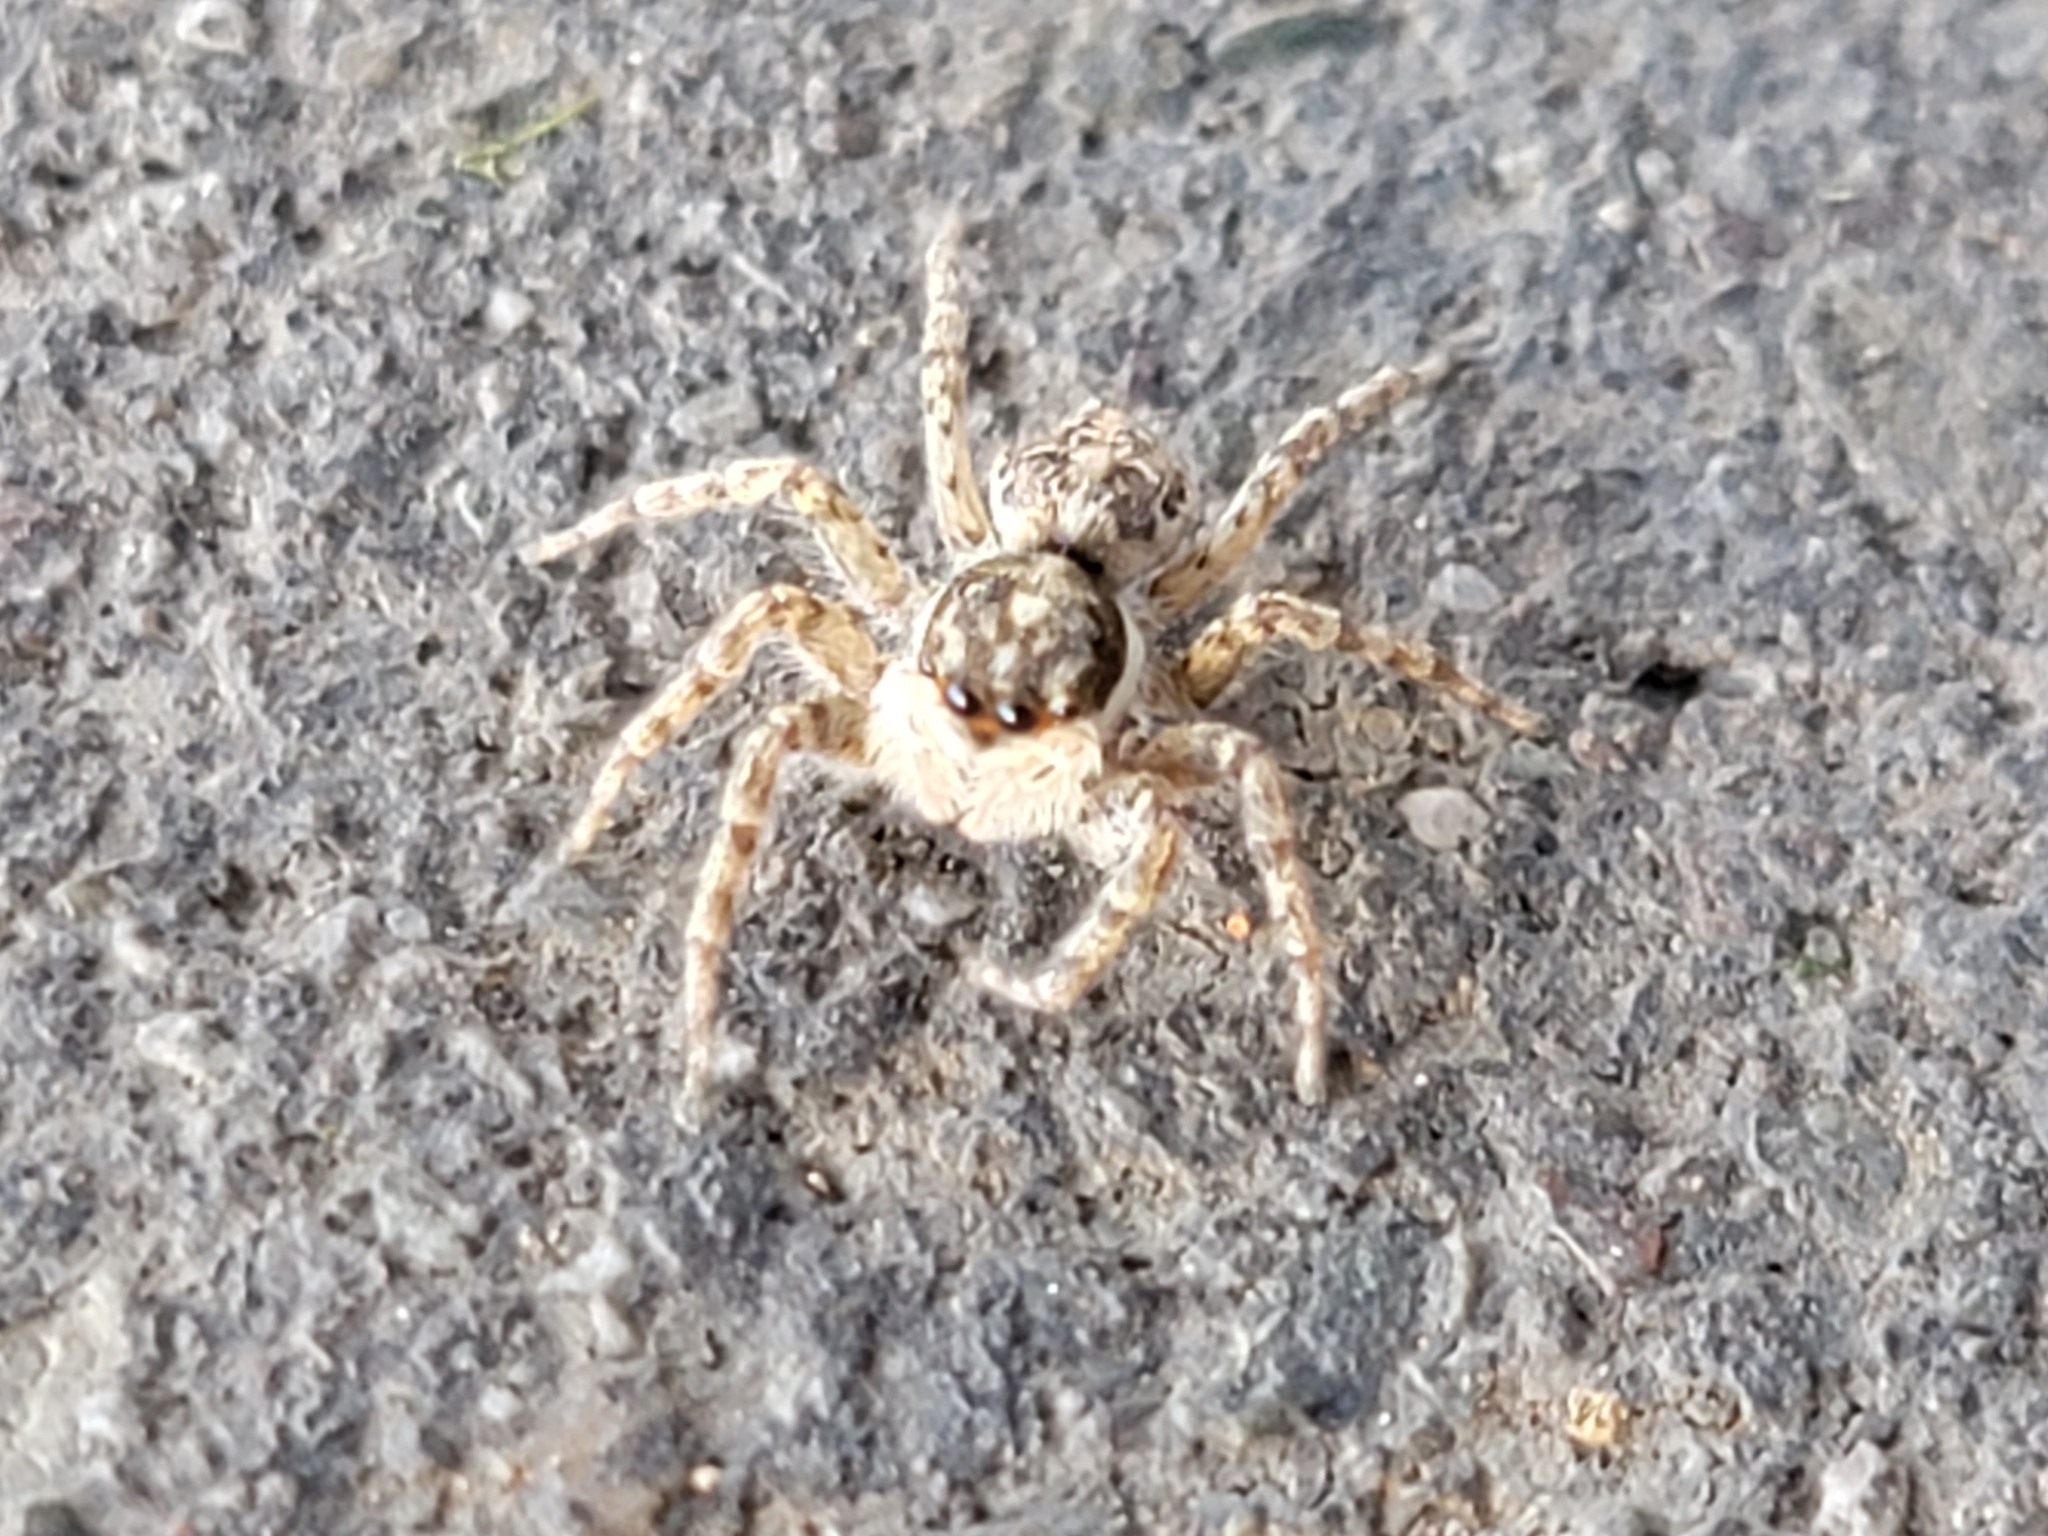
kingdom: Animalia
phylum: Arthropoda
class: Arachnida
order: Araneae
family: Salticidae
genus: Menemerus
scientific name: Menemerus semilimbatus
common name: Jumping spider
